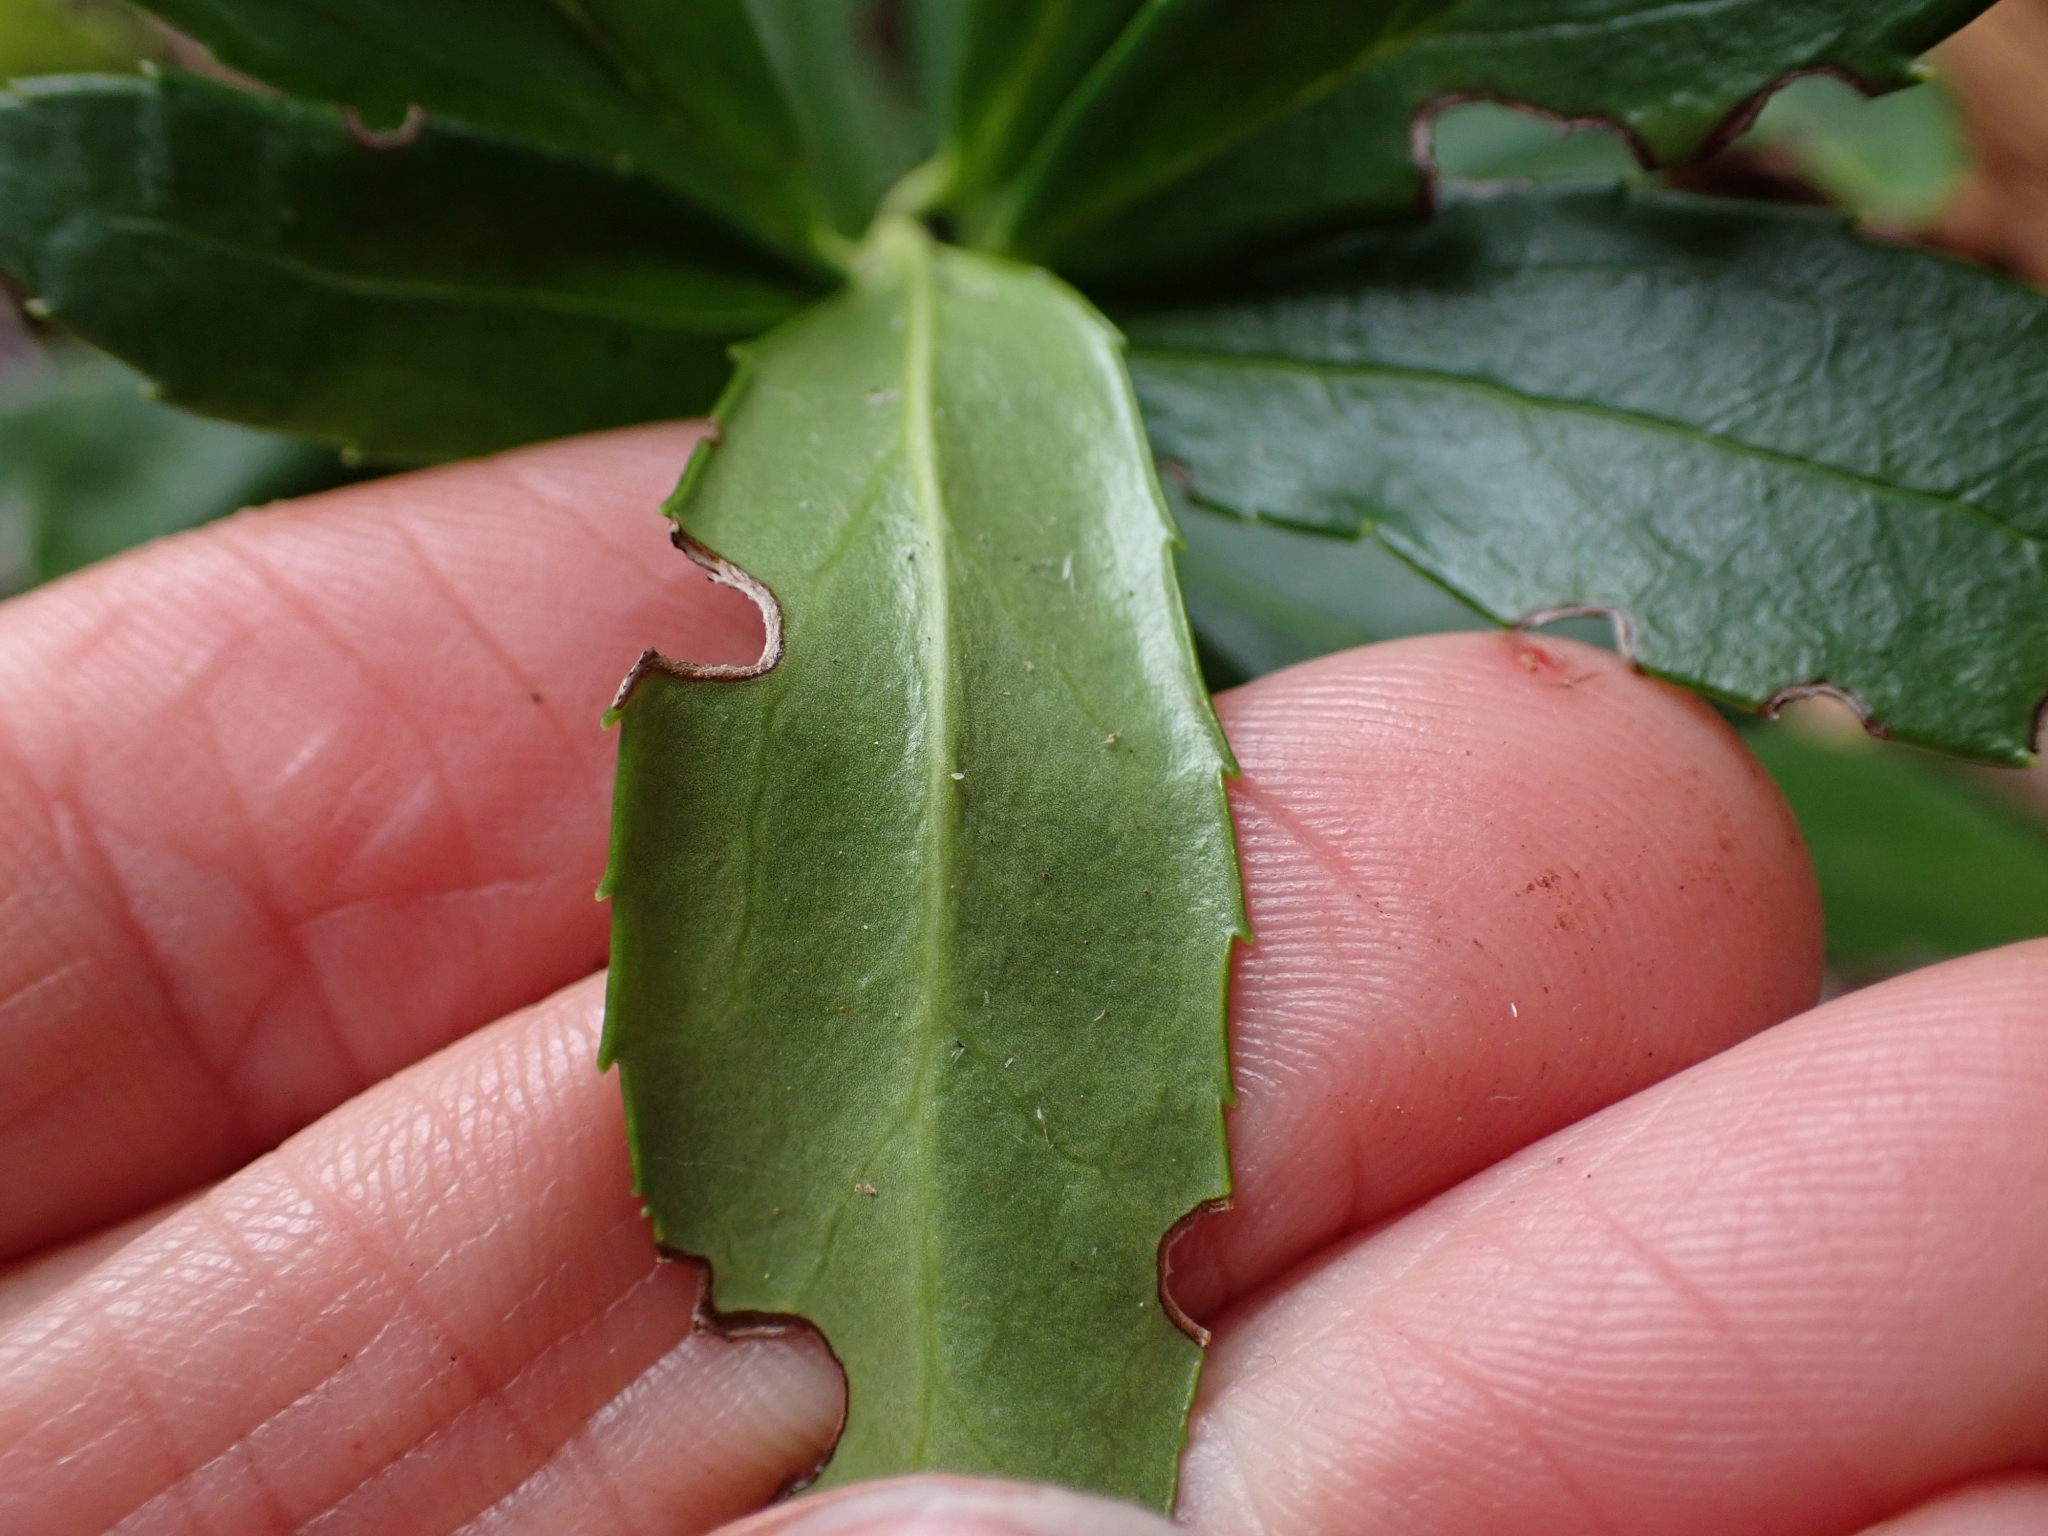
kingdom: Plantae
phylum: Tracheophyta
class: Magnoliopsida
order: Ericales
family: Ericaceae
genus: Chimaphila
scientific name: Chimaphila umbellata
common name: Pipsissewa
